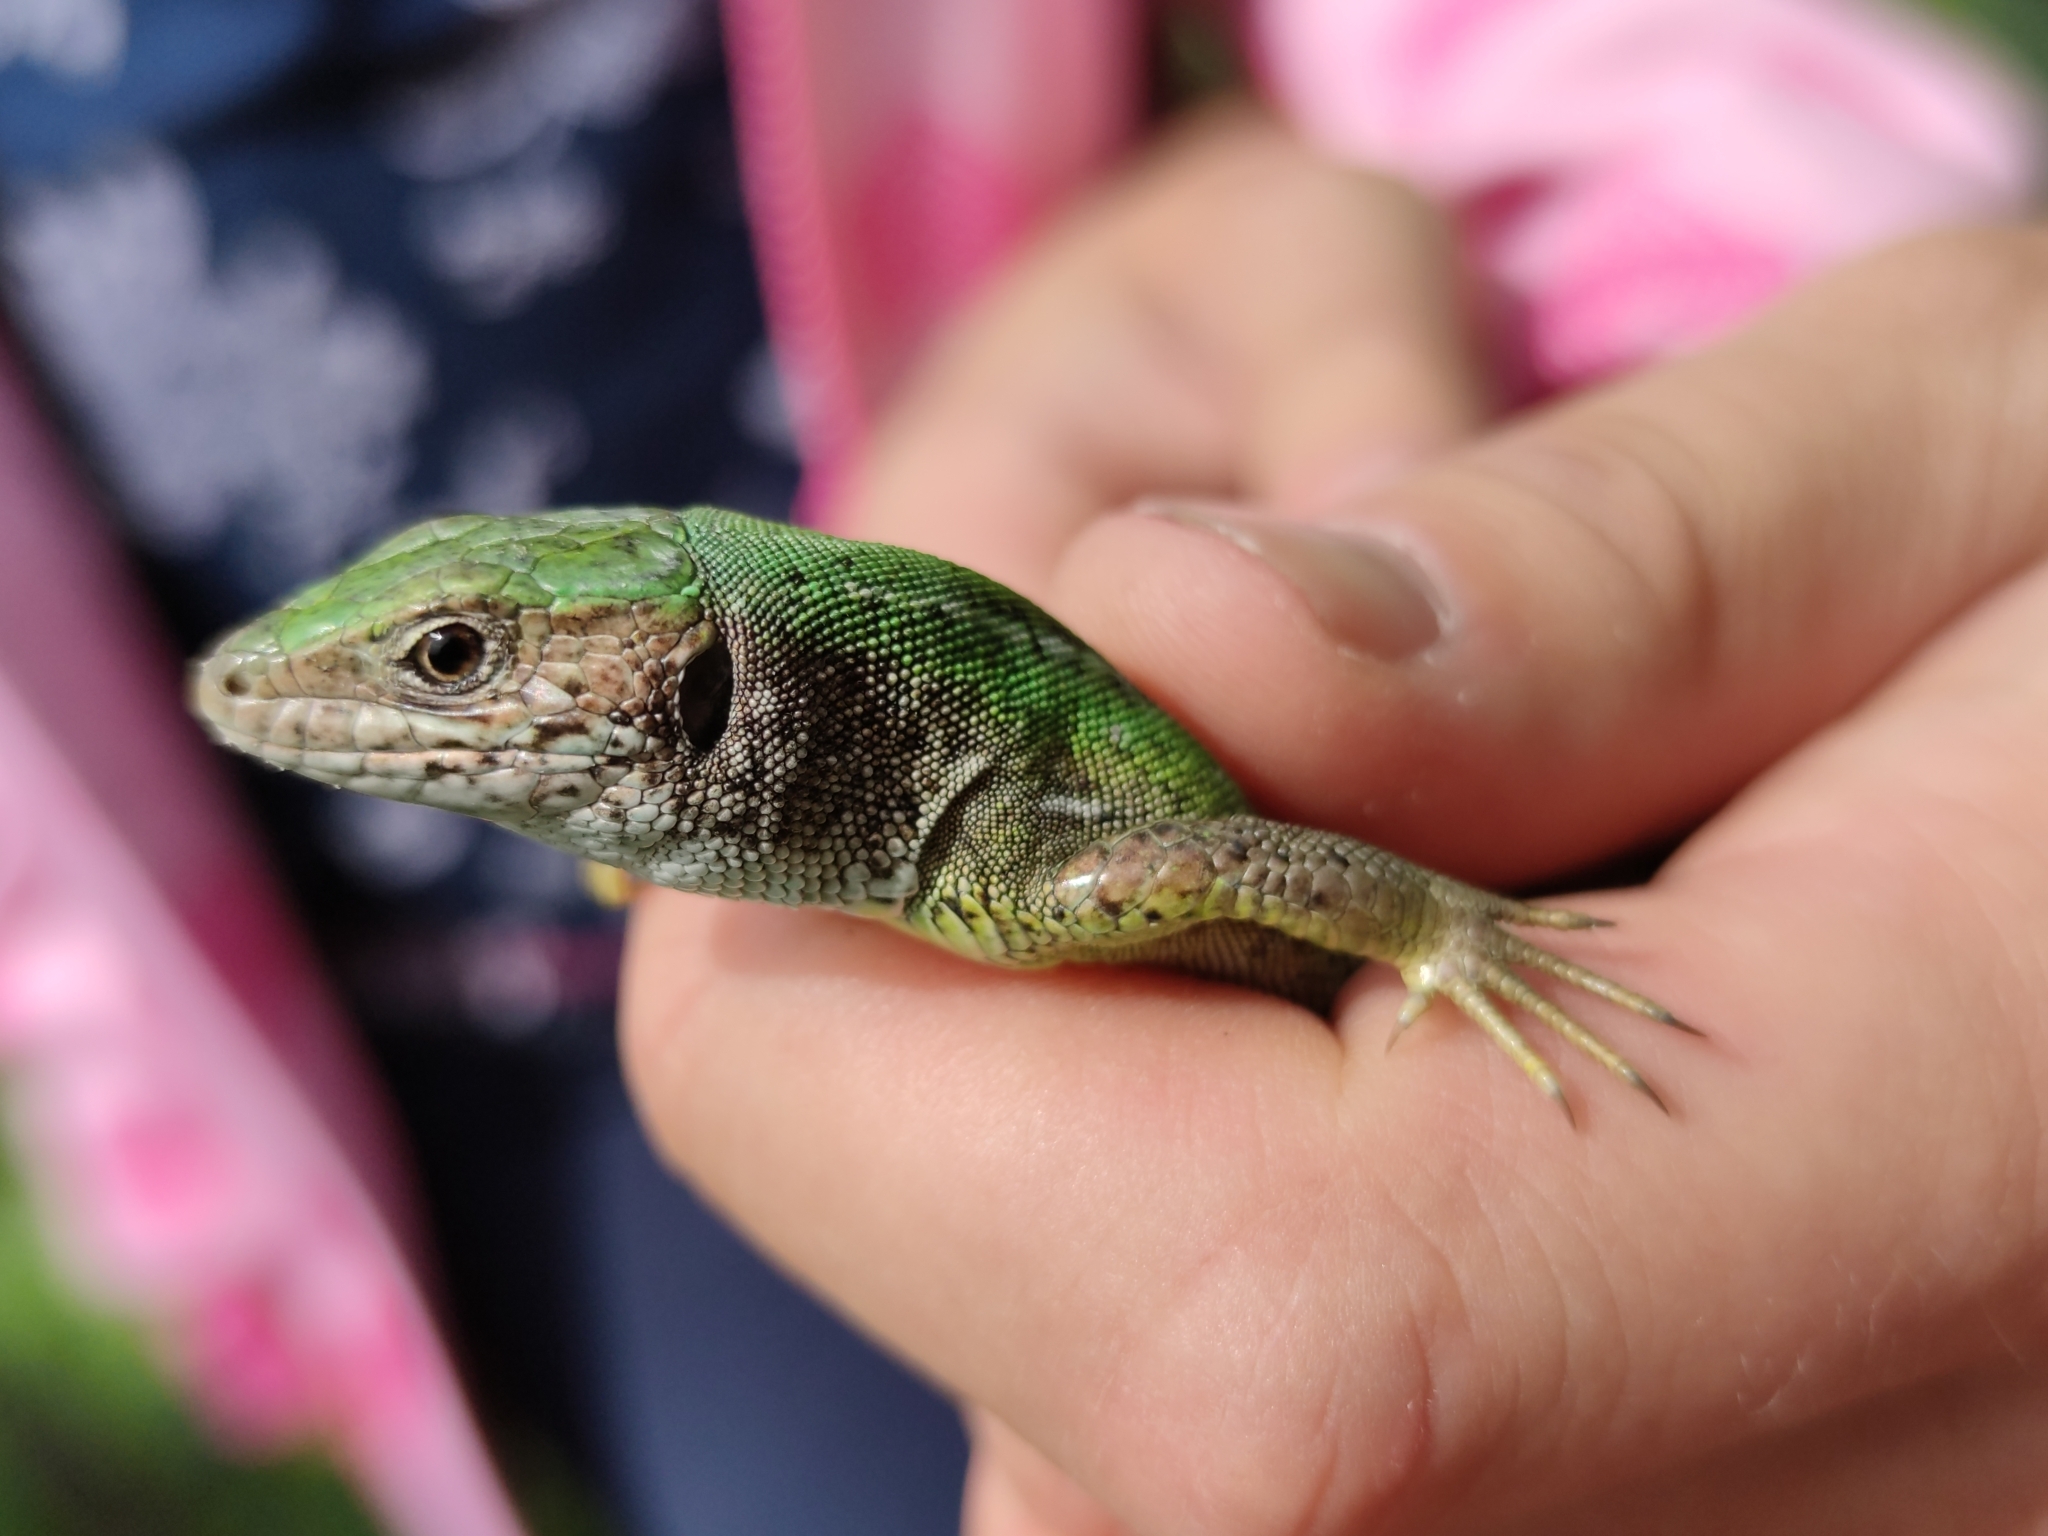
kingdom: Animalia
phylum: Chordata
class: Squamata
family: Lacertidae
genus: Lacerta
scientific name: Lacerta viridis
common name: European green lizard
